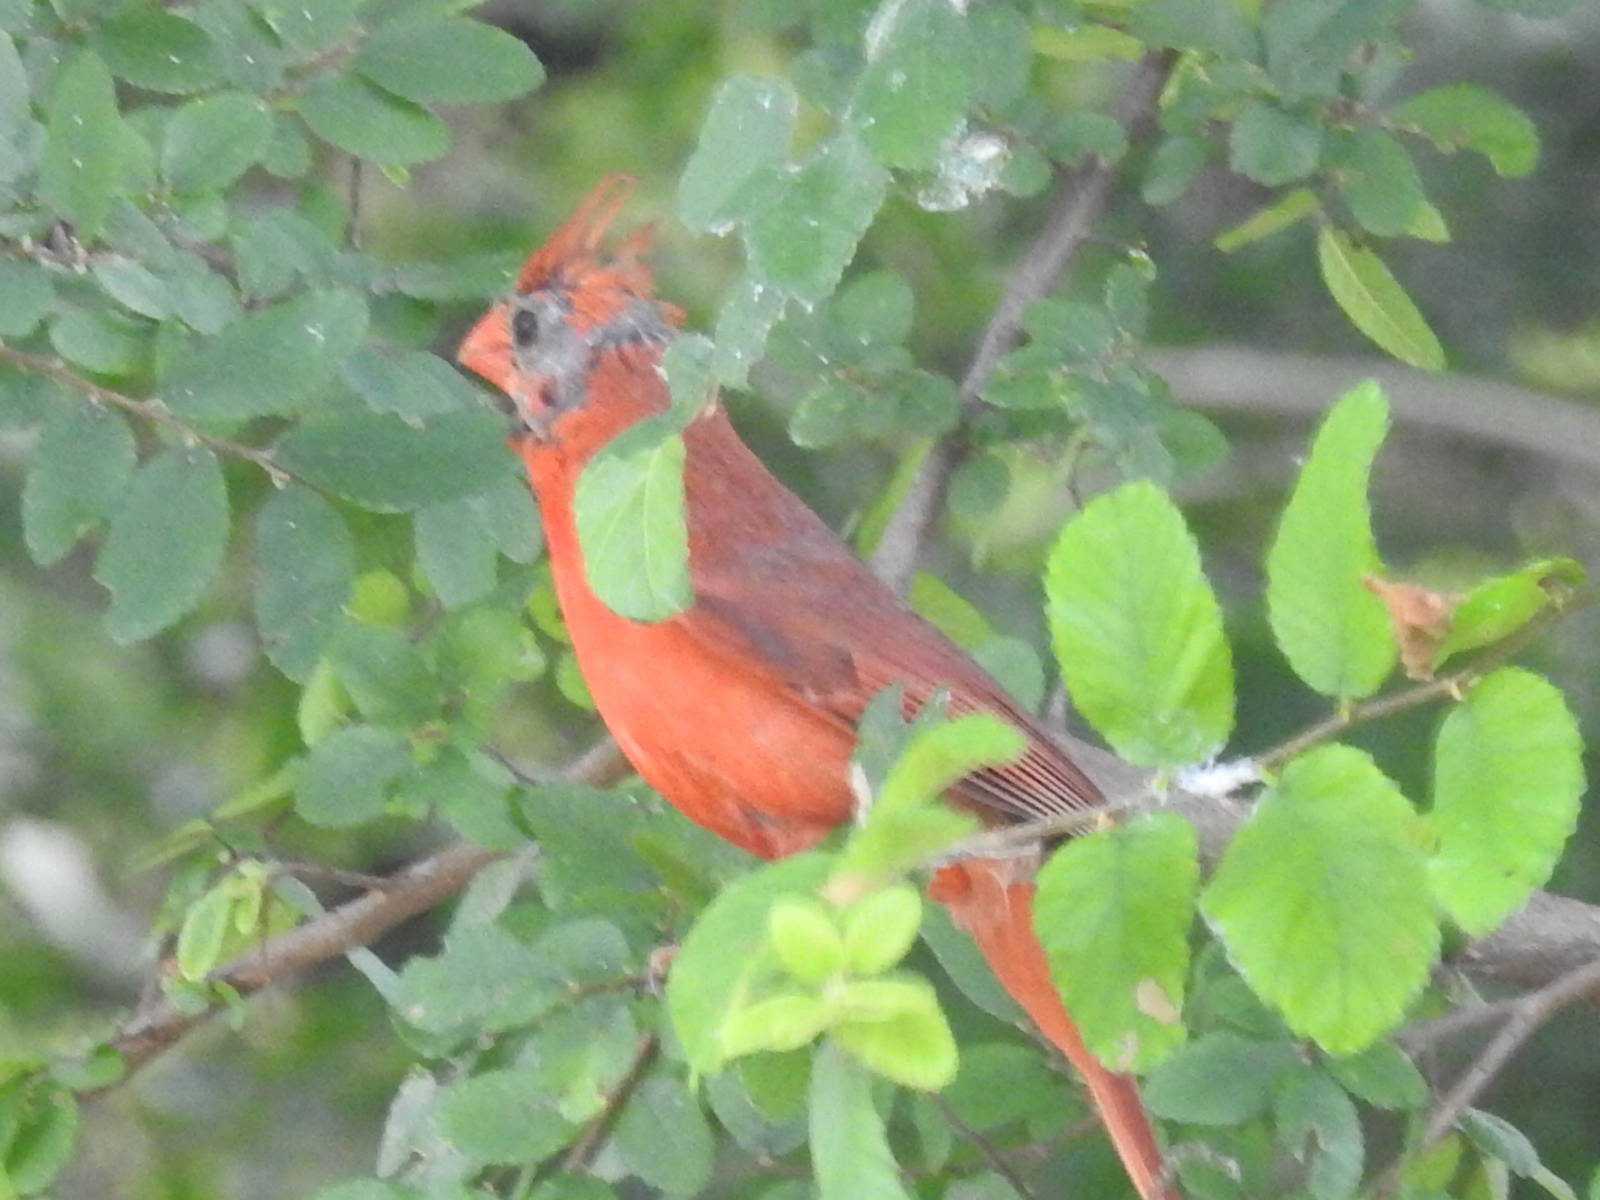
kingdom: Animalia
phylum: Chordata
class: Aves
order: Passeriformes
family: Cardinalidae
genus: Cardinalis
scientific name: Cardinalis cardinalis
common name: Northern cardinal
